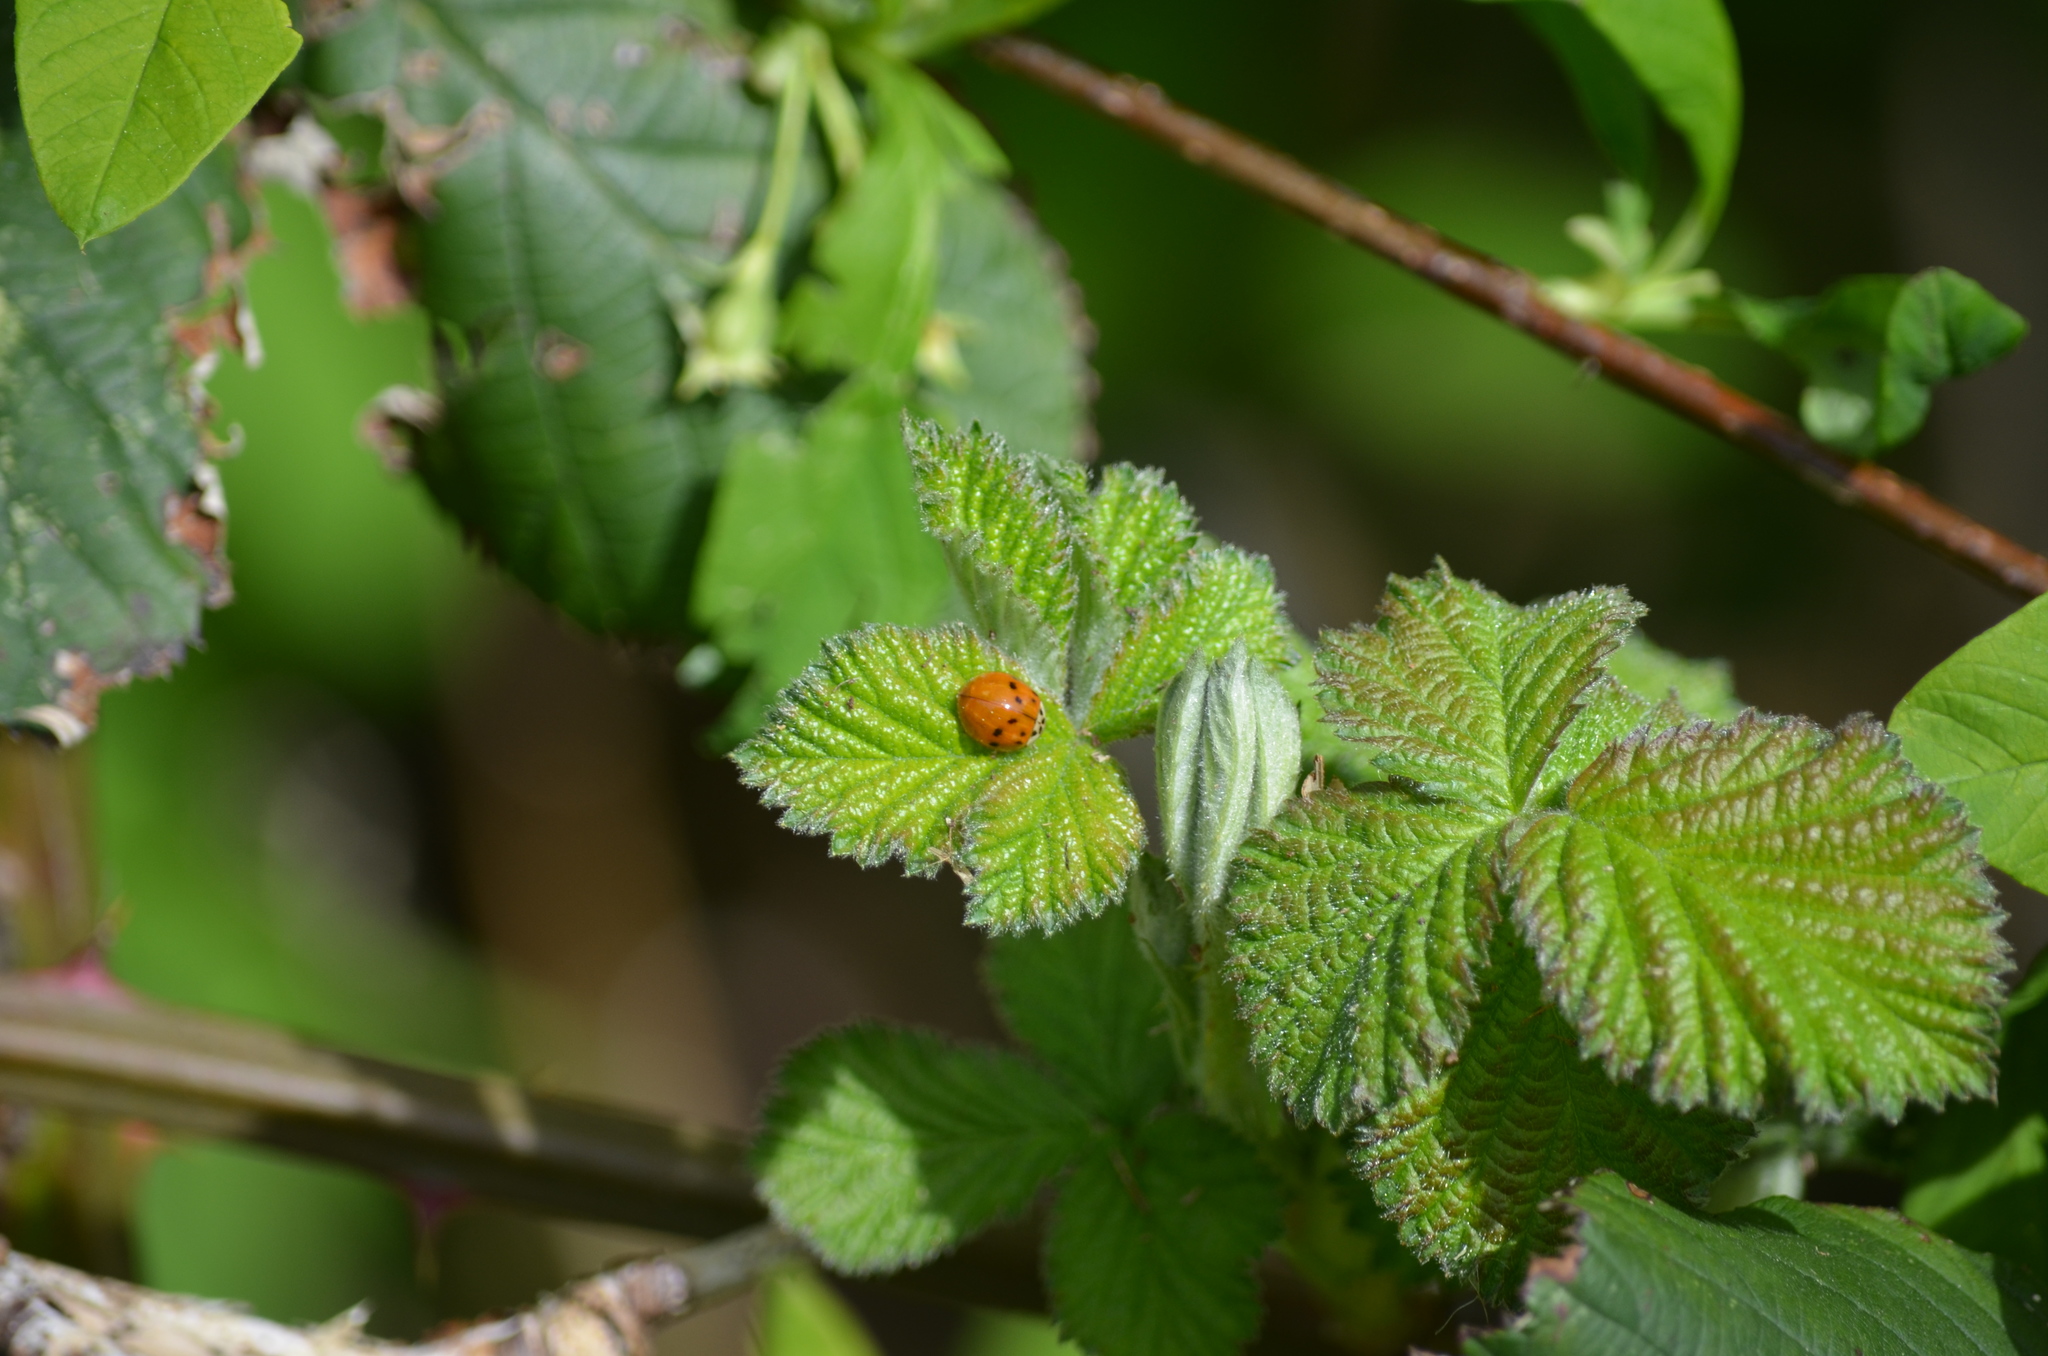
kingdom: Animalia
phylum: Arthropoda
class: Insecta
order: Coleoptera
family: Coccinellidae
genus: Harmonia
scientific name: Harmonia axyridis
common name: Harlequin ladybird
